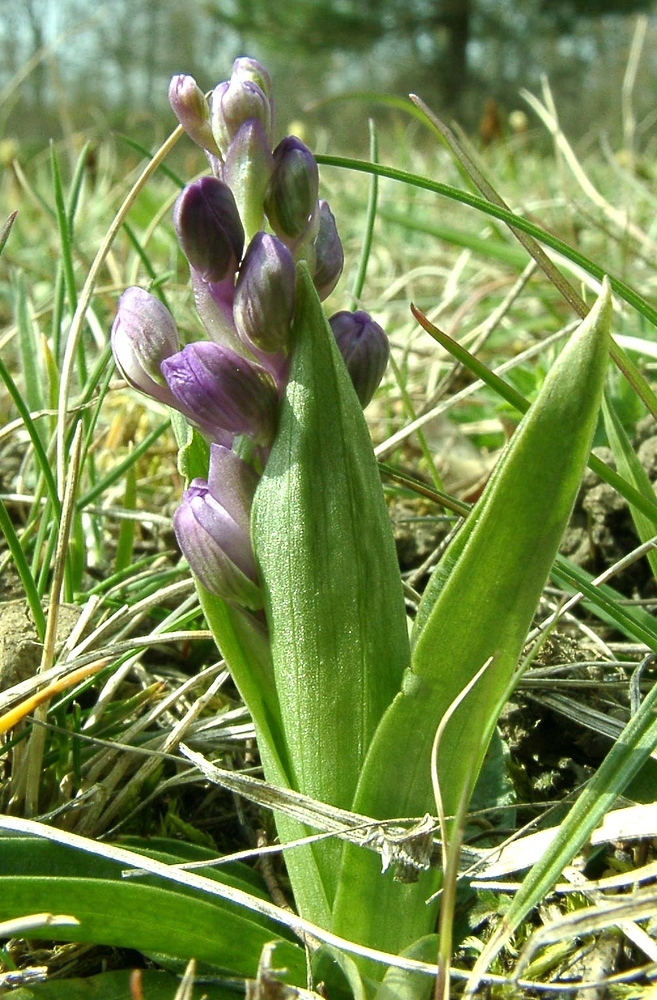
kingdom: Plantae
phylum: Tracheophyta
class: Liliopsida
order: Asparagales
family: Orchidaceae
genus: Anacamptis
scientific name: Anacamptis morio
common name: Green-winged orchid
